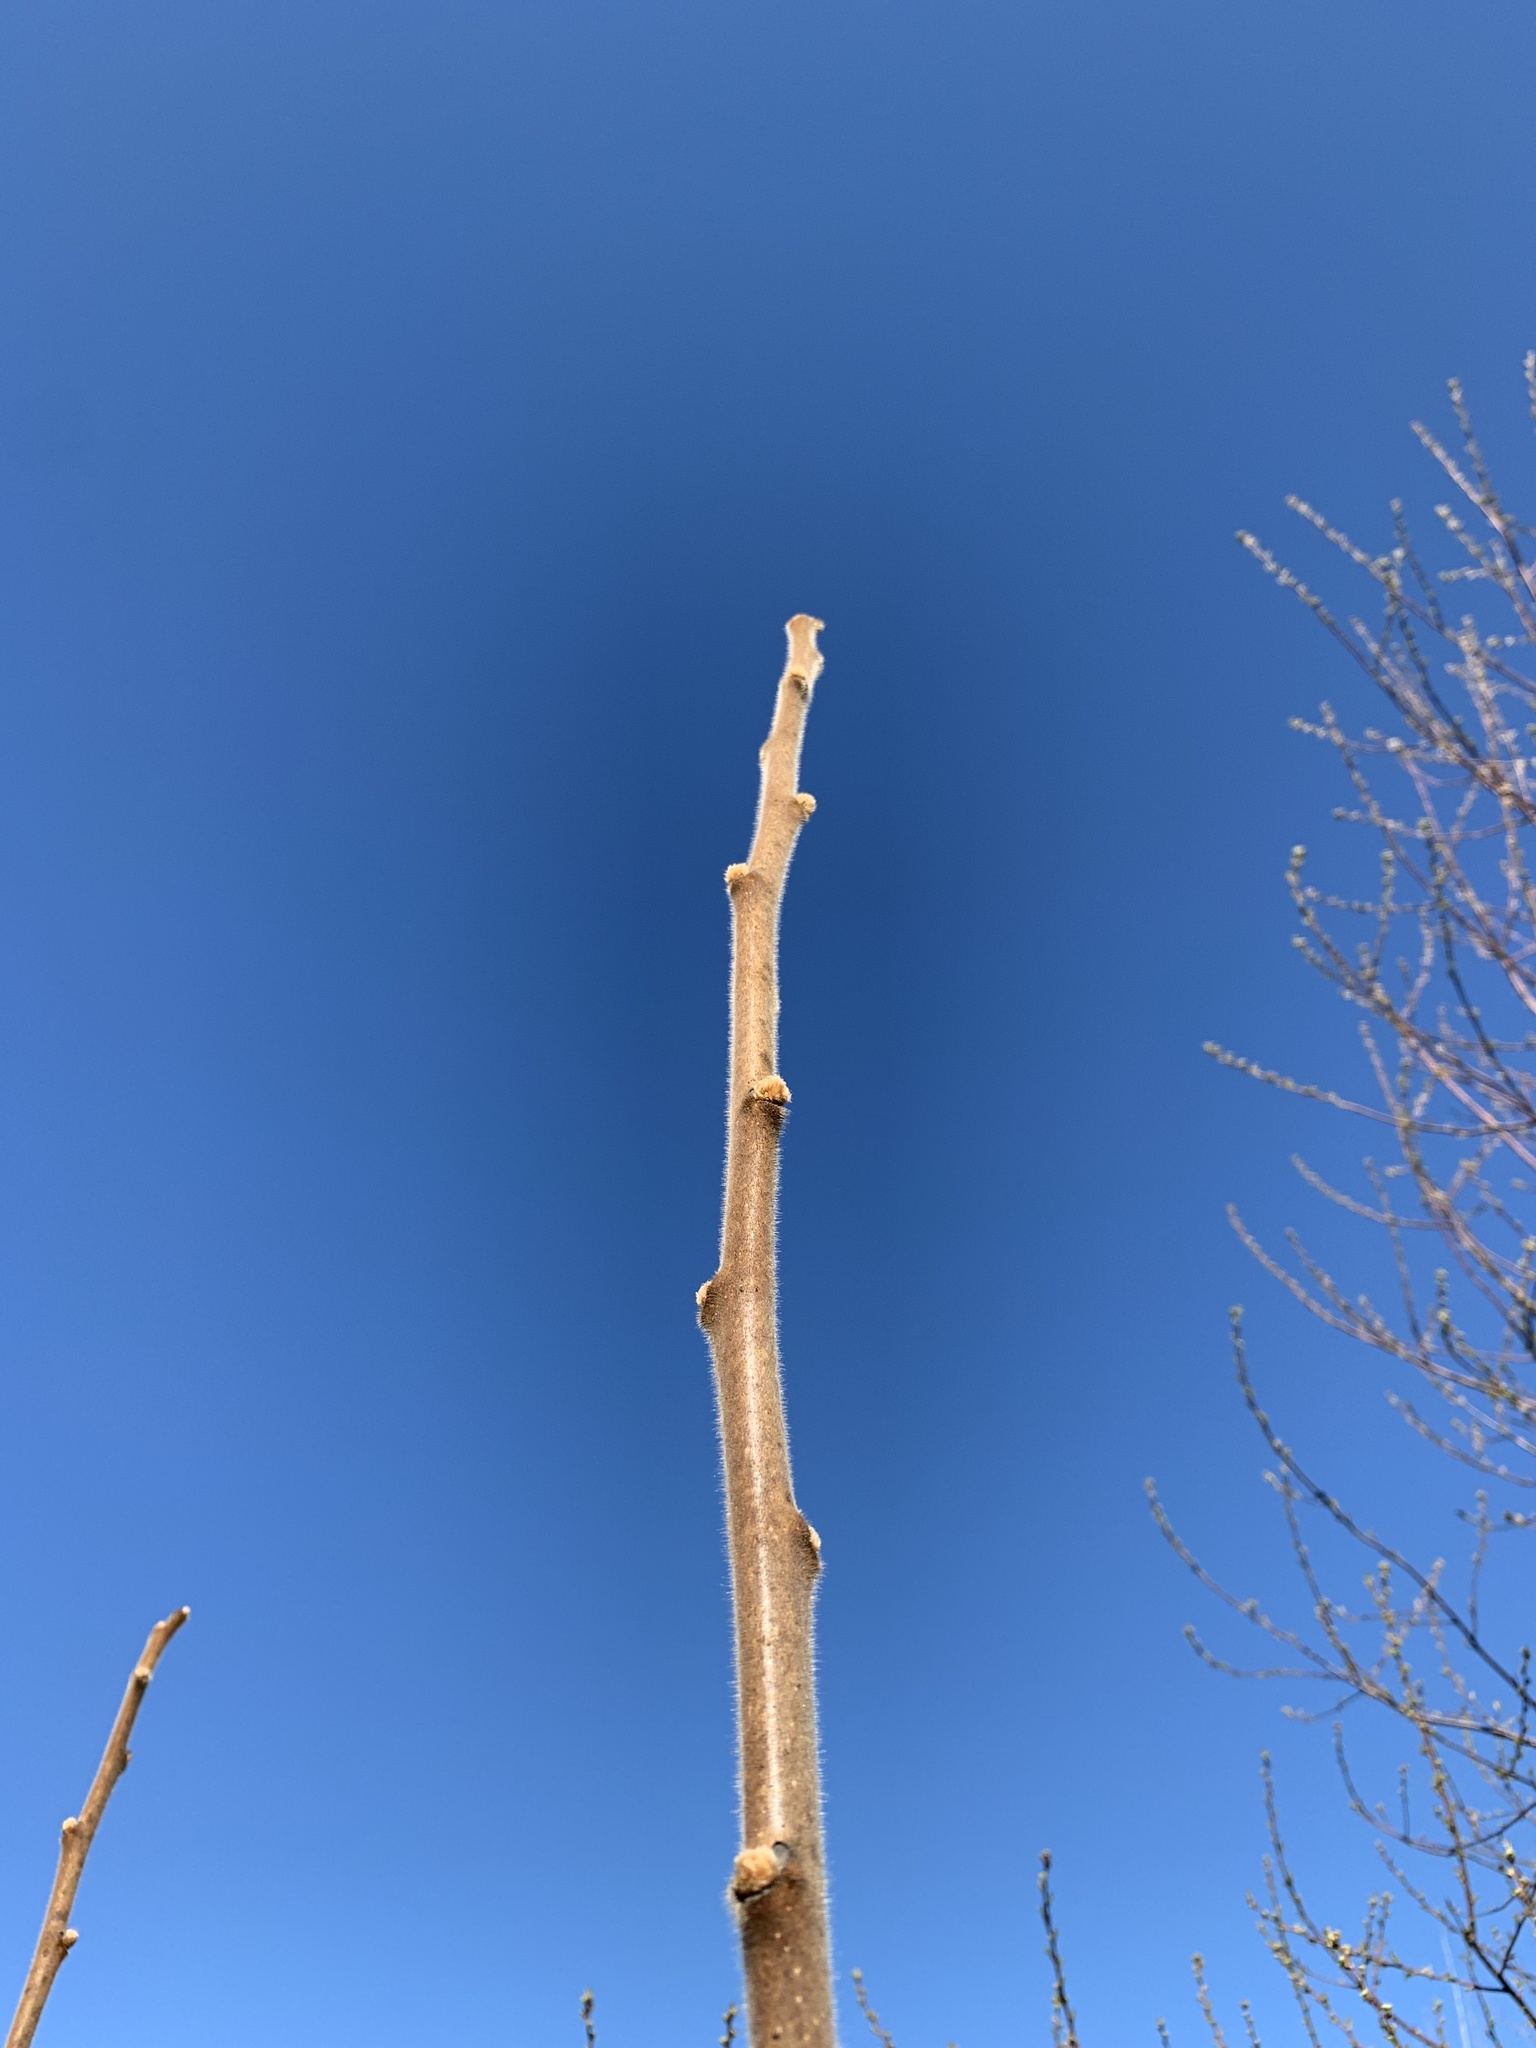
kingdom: Plantae
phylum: Tracheophyta
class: Magnoliopsida
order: Sapindales
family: Anacardiaceae
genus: Rhus
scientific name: Rhus typhina
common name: Staghorn sumac
